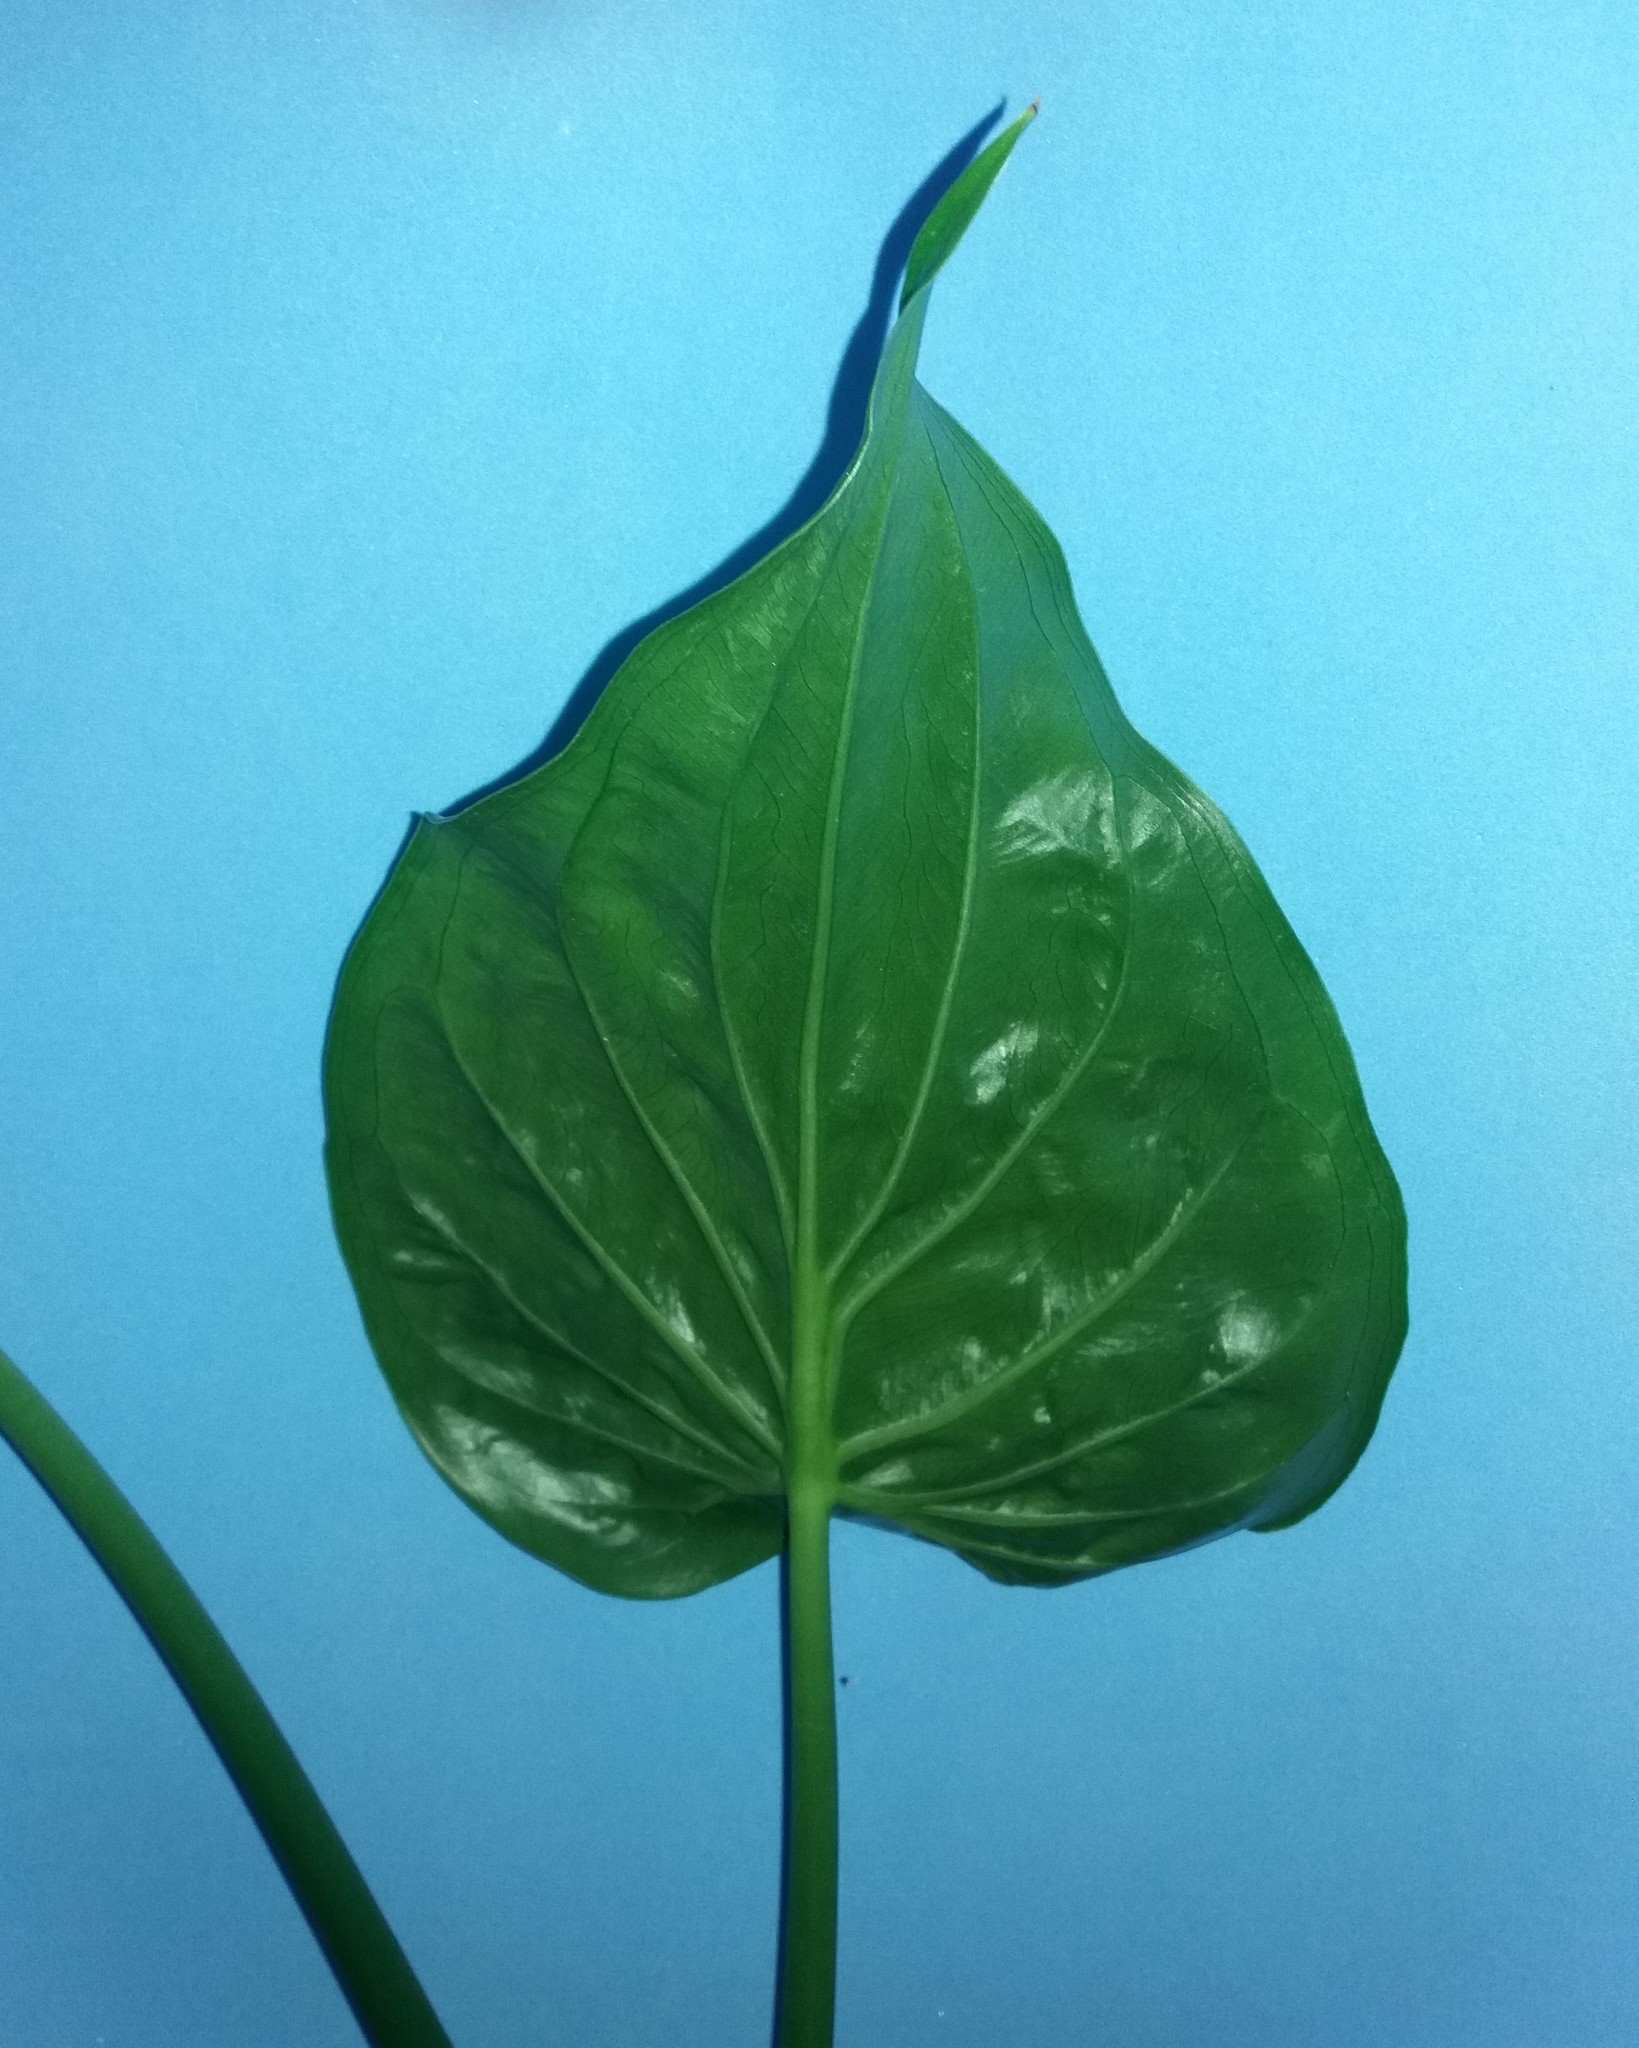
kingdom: Plantae
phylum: Tracheophyta
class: Liliopsida
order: Alismatales
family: Araceae
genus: Alocasia
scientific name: Alocasia cucullata
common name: Buddha's hand
